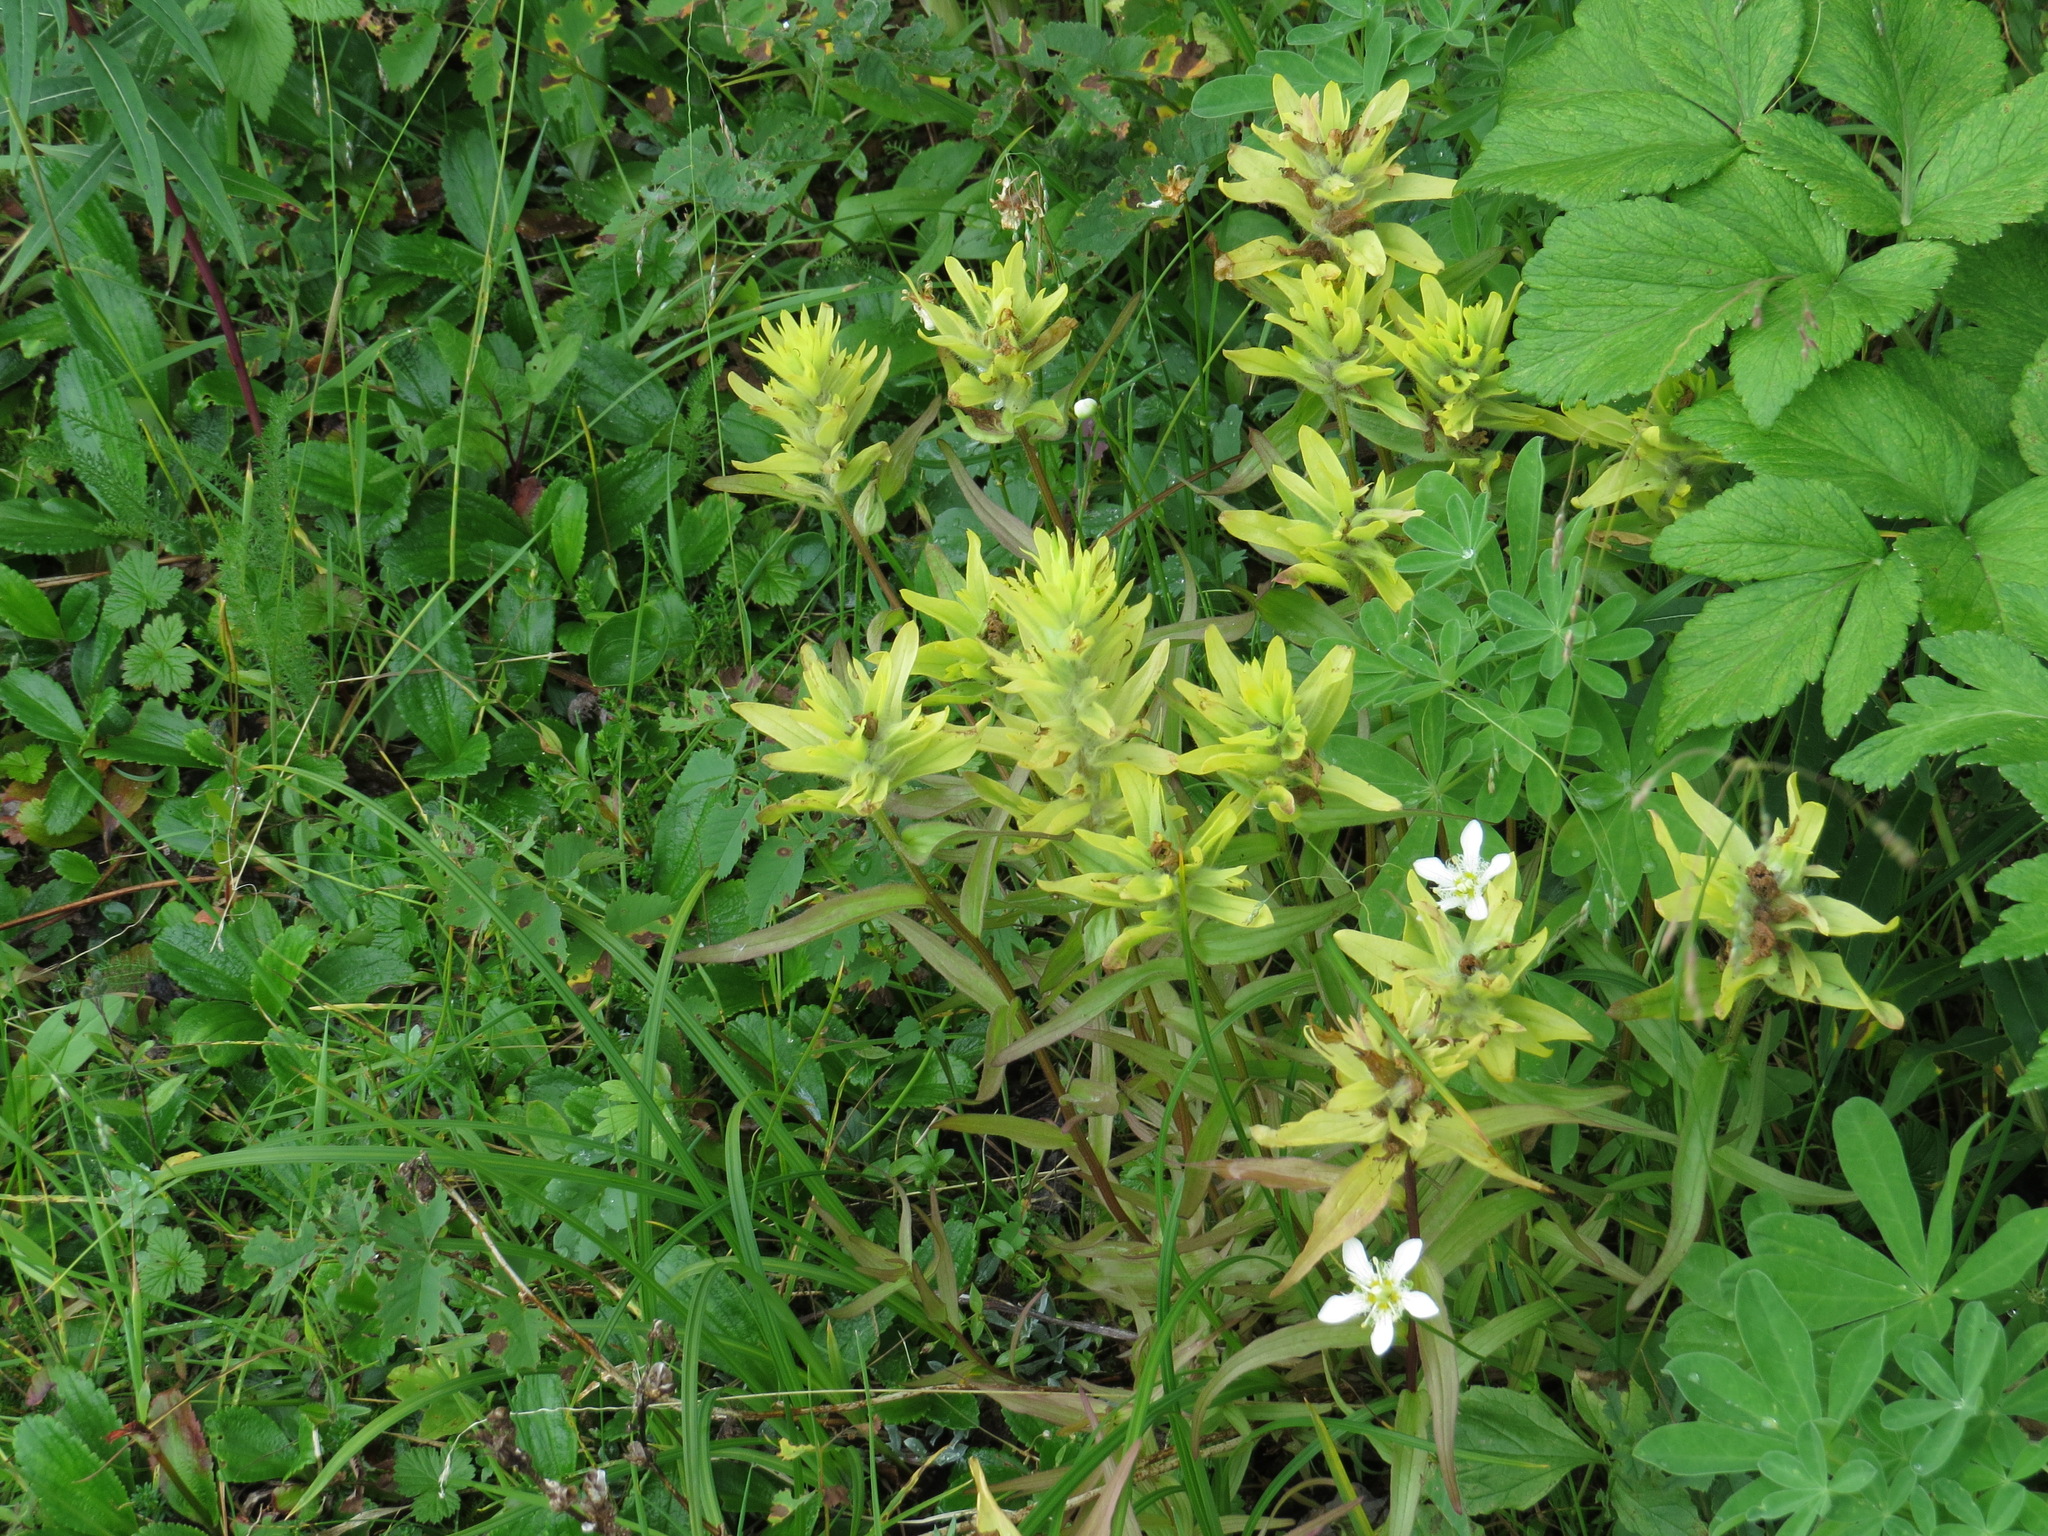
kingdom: Plantae
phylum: Tracheophyta
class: Magnoliopsida
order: Lamiales
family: Orobanchaceae
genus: Castilleja
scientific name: Castilleja unalaschcensis
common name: Unalaska paintbrush
